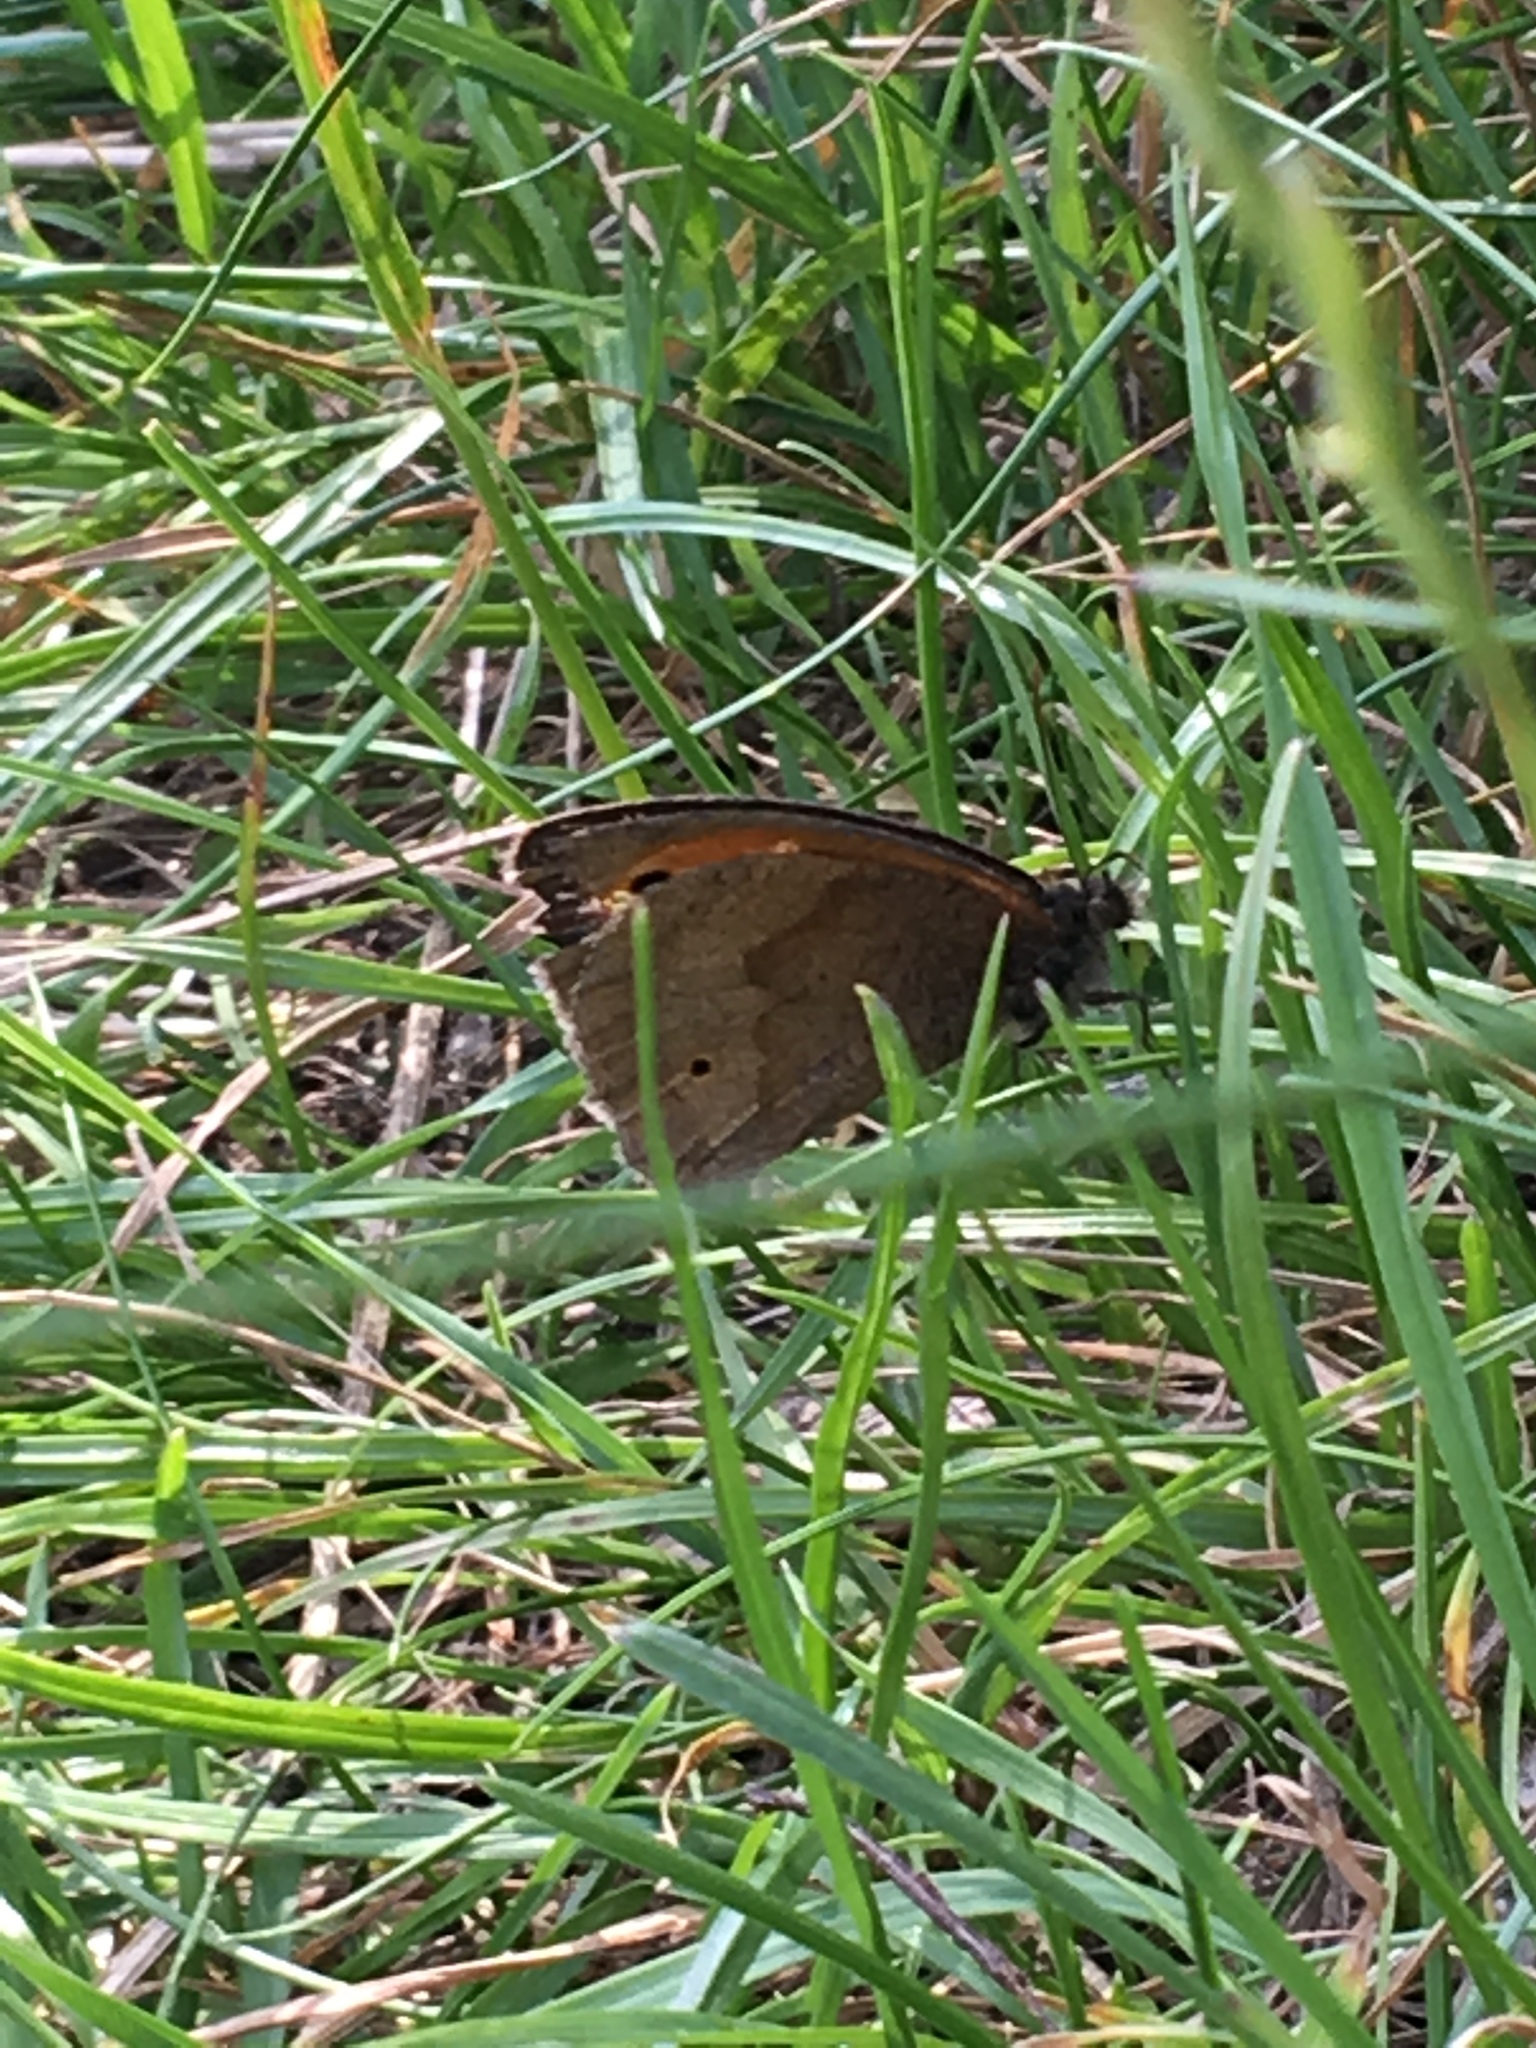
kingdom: Animalia
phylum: Arthropoda
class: Insecta
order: Lepidoptera
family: Nymphalidae
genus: Maniola
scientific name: Maniola jurtina
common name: Meadow brown
